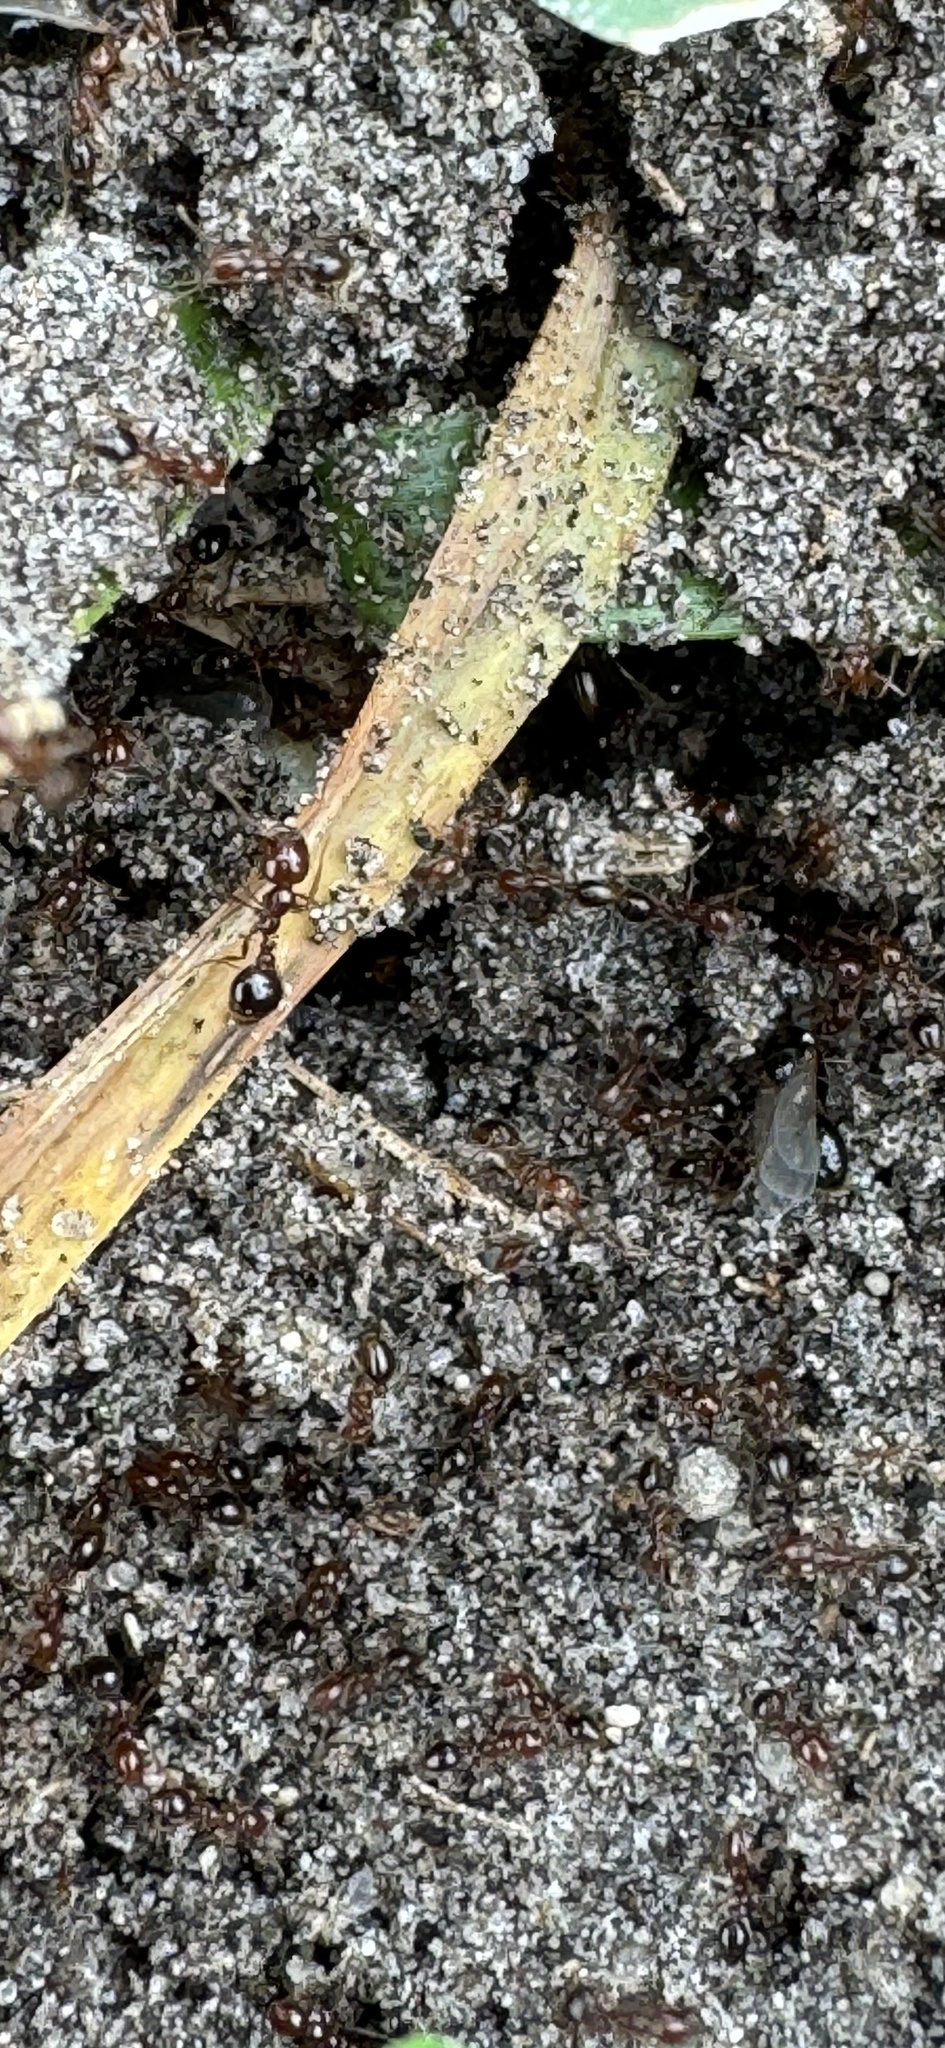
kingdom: Animalia
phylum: Arthropoda
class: Insecta
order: Hymenoptera
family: Formicidae
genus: Solenopsis
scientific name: Solenopsis invicta
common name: Red imported fire ant
